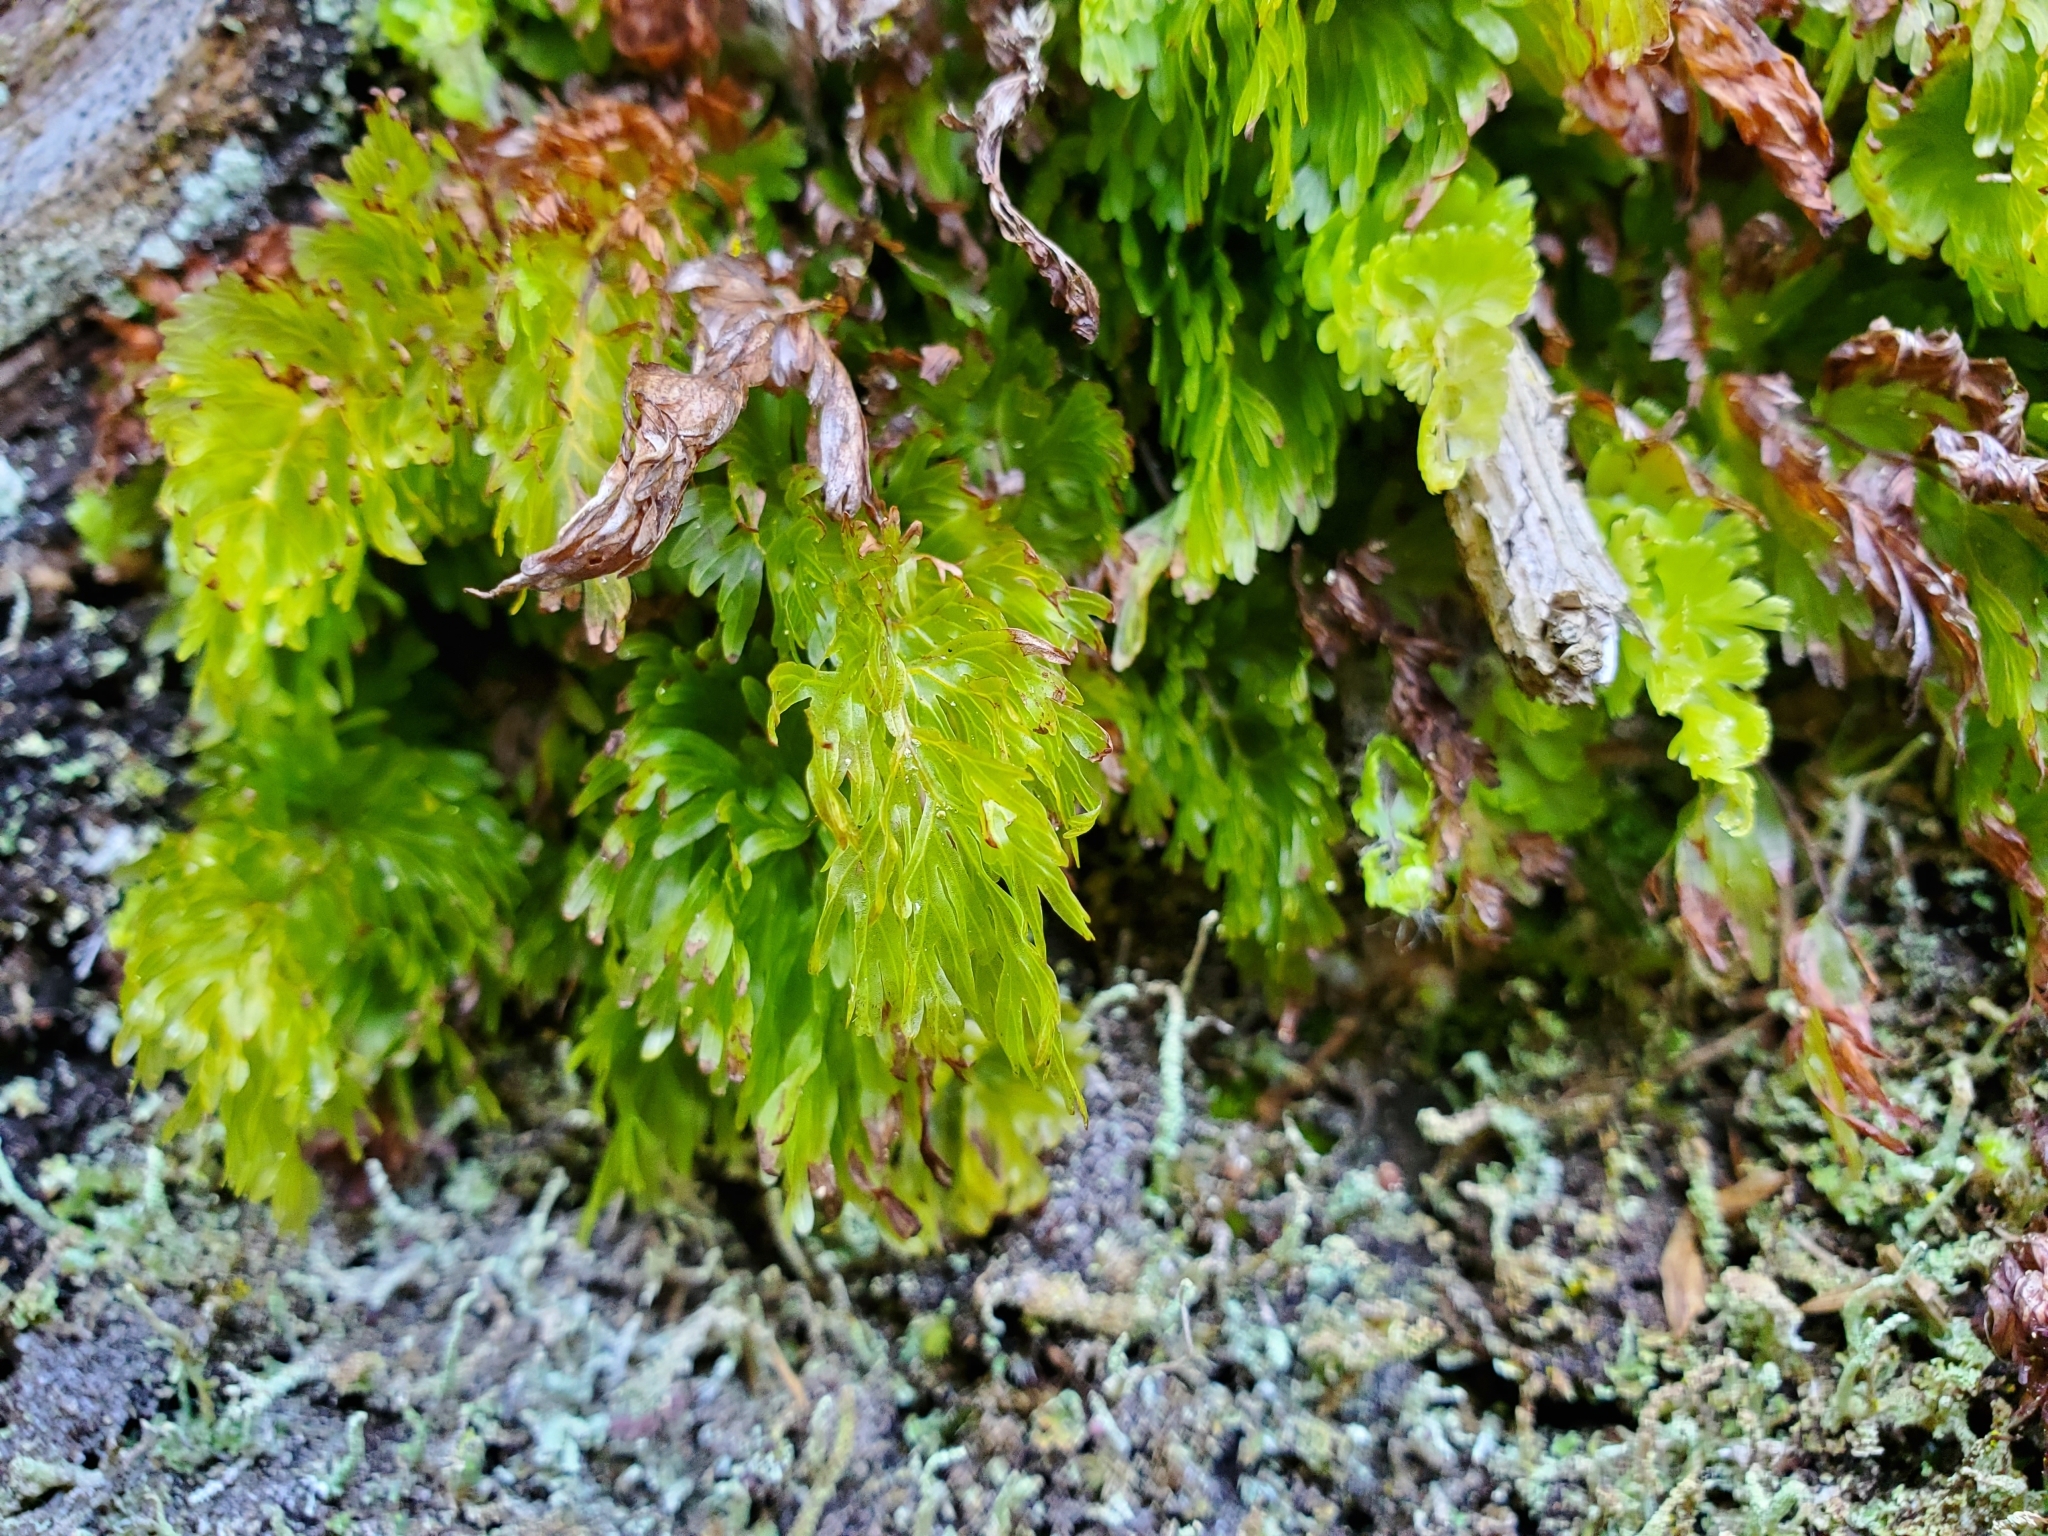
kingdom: Plantae
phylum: Tracheophyta
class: Polypodiopsida
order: Hymenophyllales
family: Hymenophyllaceae
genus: Hymenophyllum
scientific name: Hymenophyllum flabellatum
